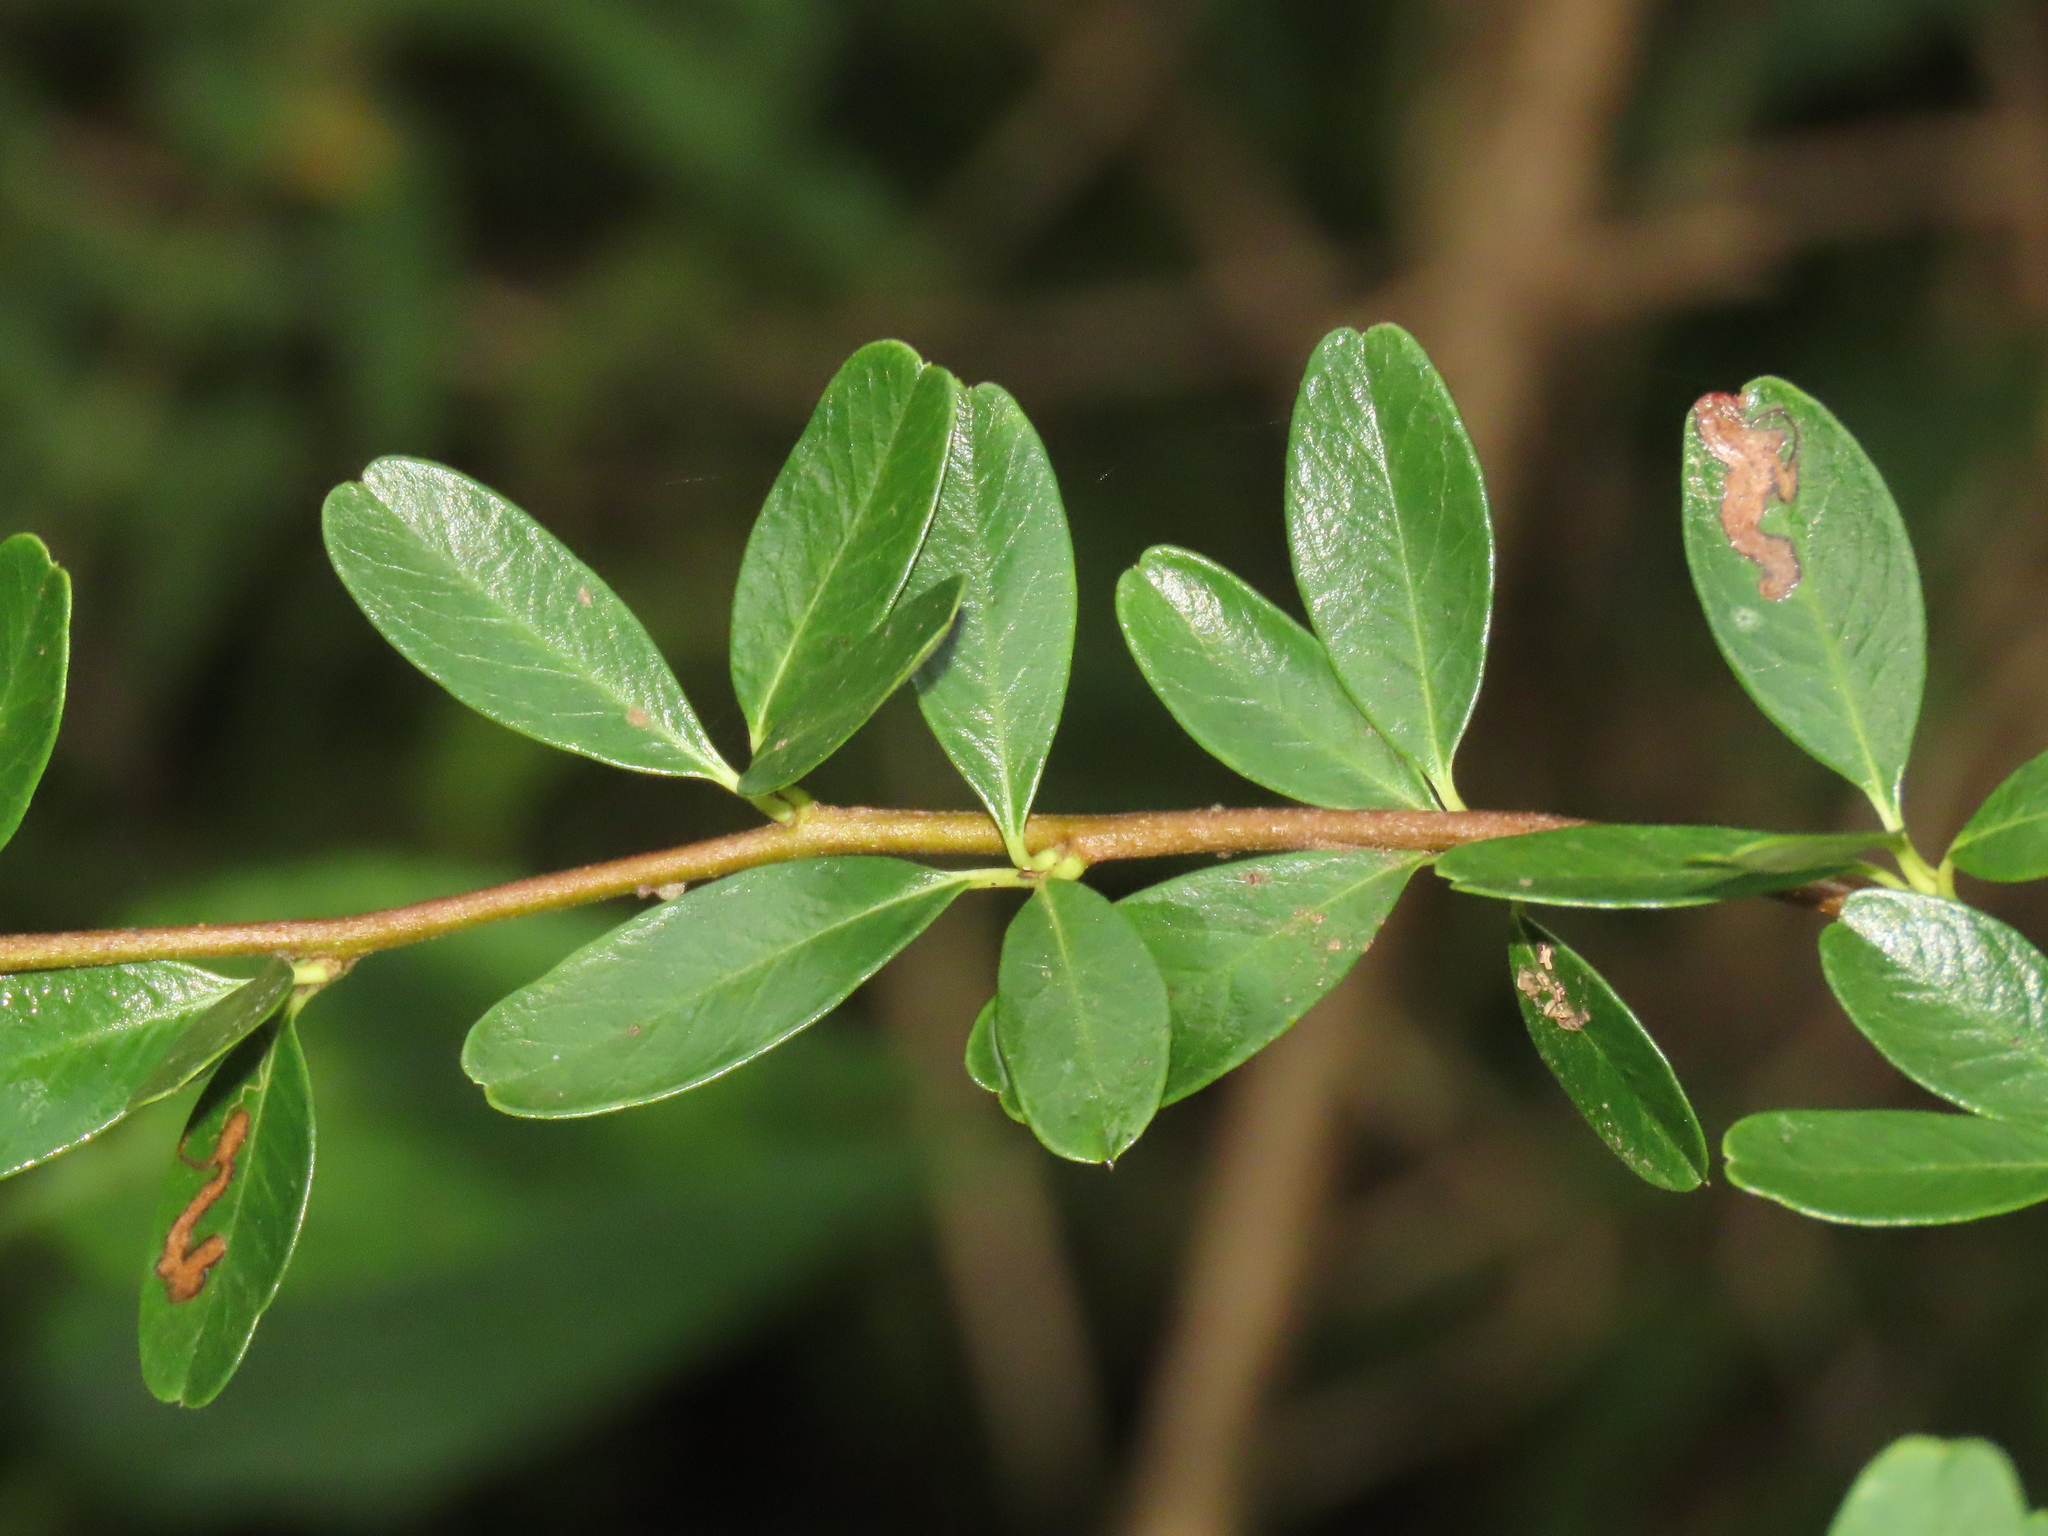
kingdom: Plantae
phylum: Tracheophyta
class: Magnoliopsida
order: Rosales
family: Rosaceae
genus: Pyracantha
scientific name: Pyracantha koidzumii
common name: Formosa firethorn
